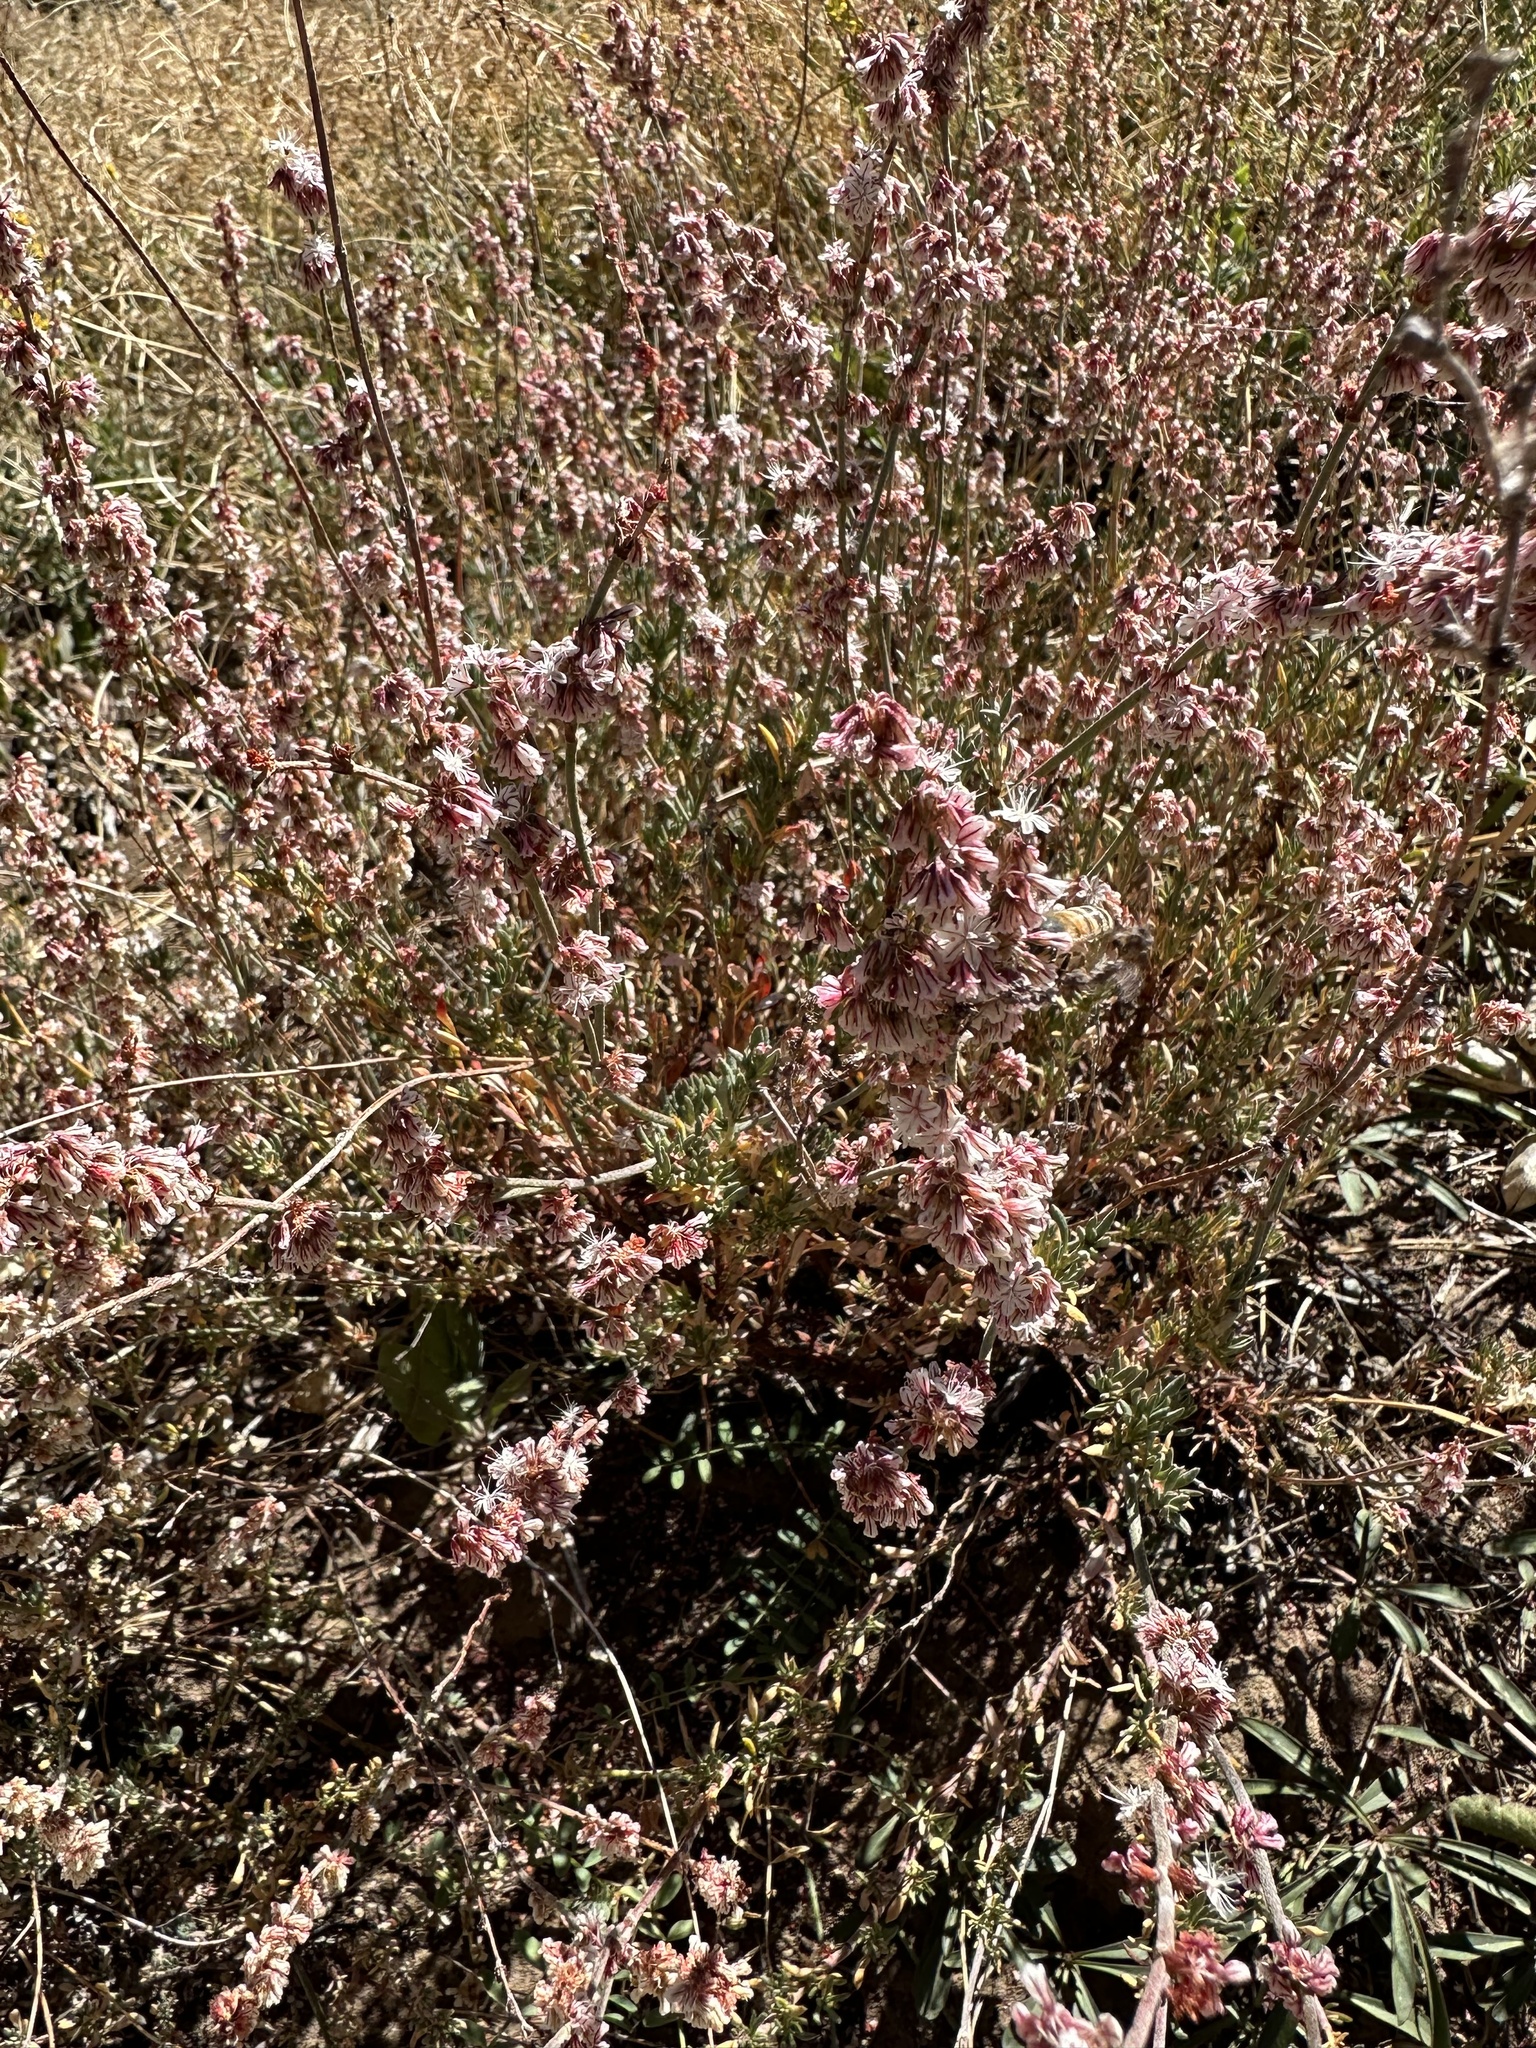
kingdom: Plantae
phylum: Tracheophyta
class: Magnoliopsida
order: Caryophyllales
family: Polygonaceae
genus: Eriogonum
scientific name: Eriogonum wrightii
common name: Bastard-sage
